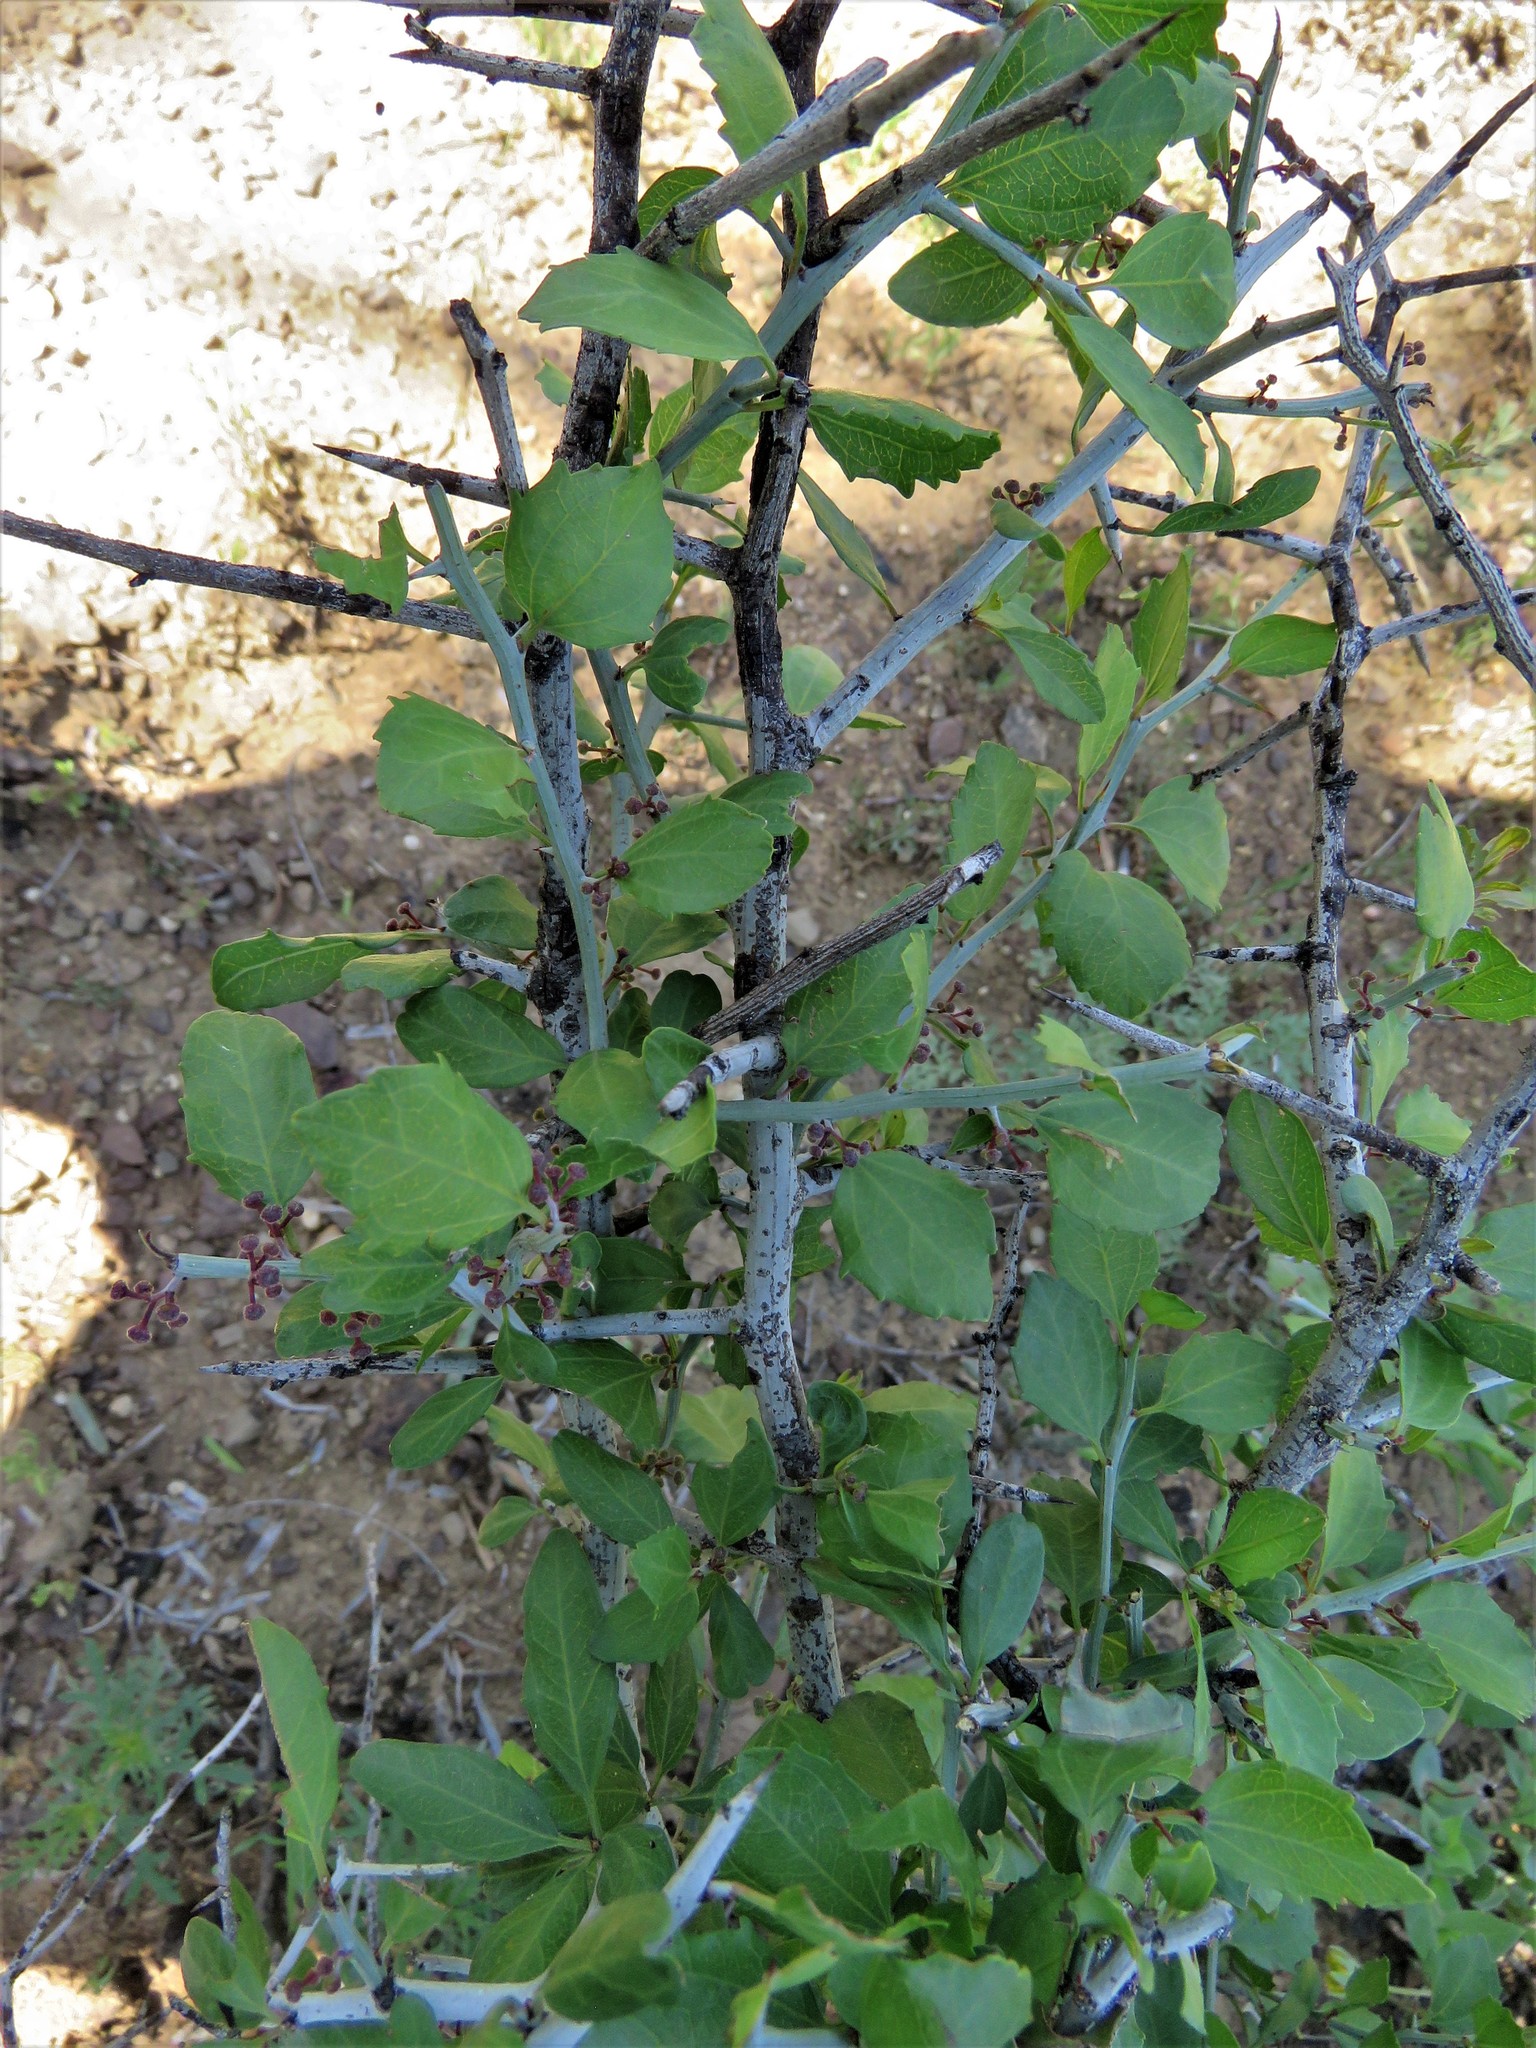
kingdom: Plantae
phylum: Tracheophyta
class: Magnoliopsida
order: Rosales
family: Rhamnaceae
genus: Sarcomphalus
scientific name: Sarcomphalus obtusifolius
